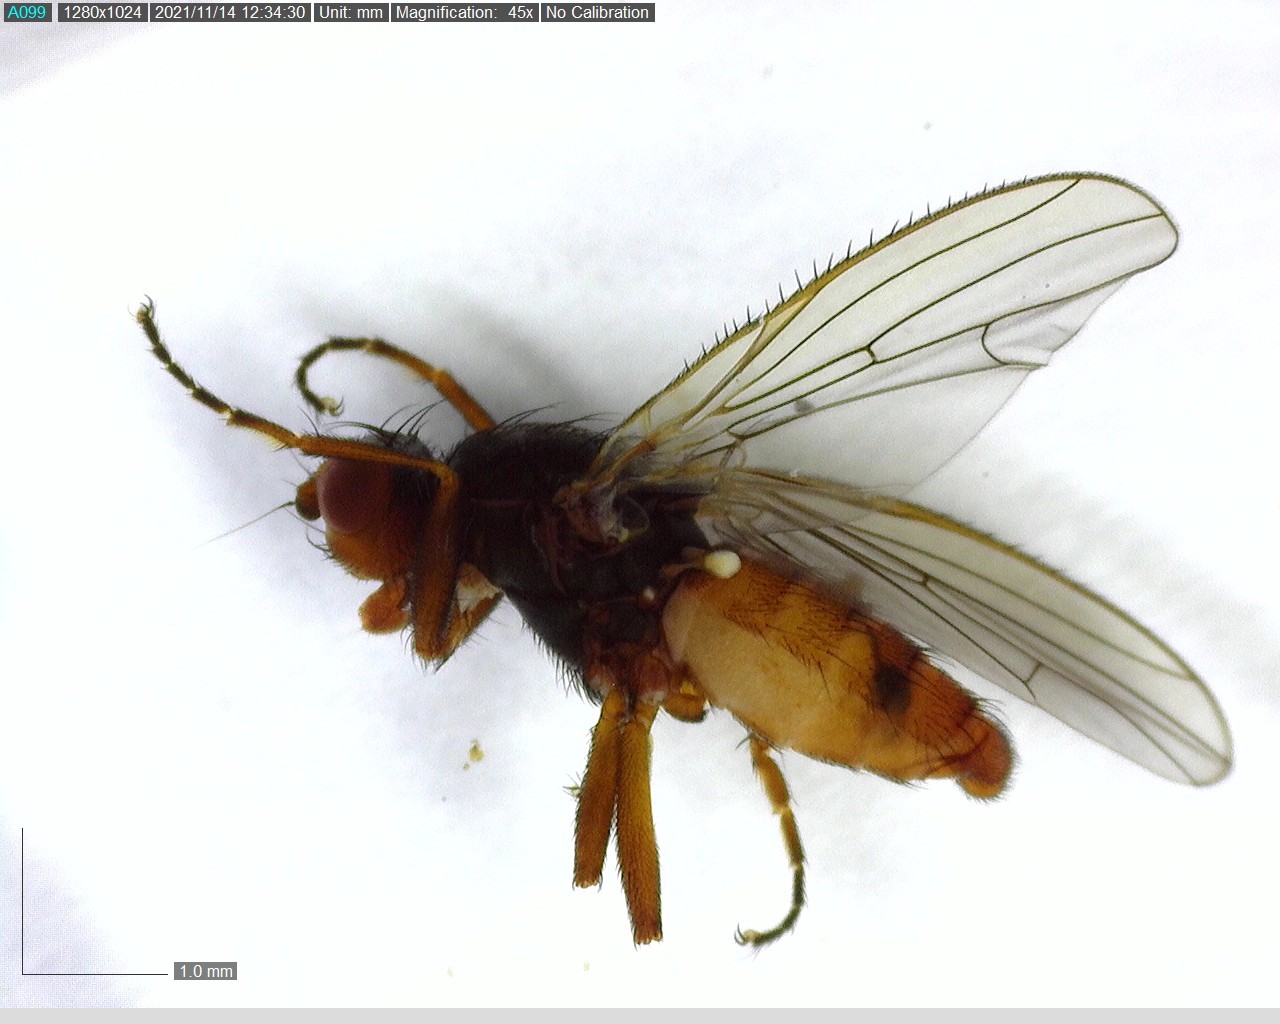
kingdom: Animalia
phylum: Arthropoda
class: Insecta
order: Diptera
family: Heleomyzidae
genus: Heleomyza
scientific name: Heleomyza captiosa
